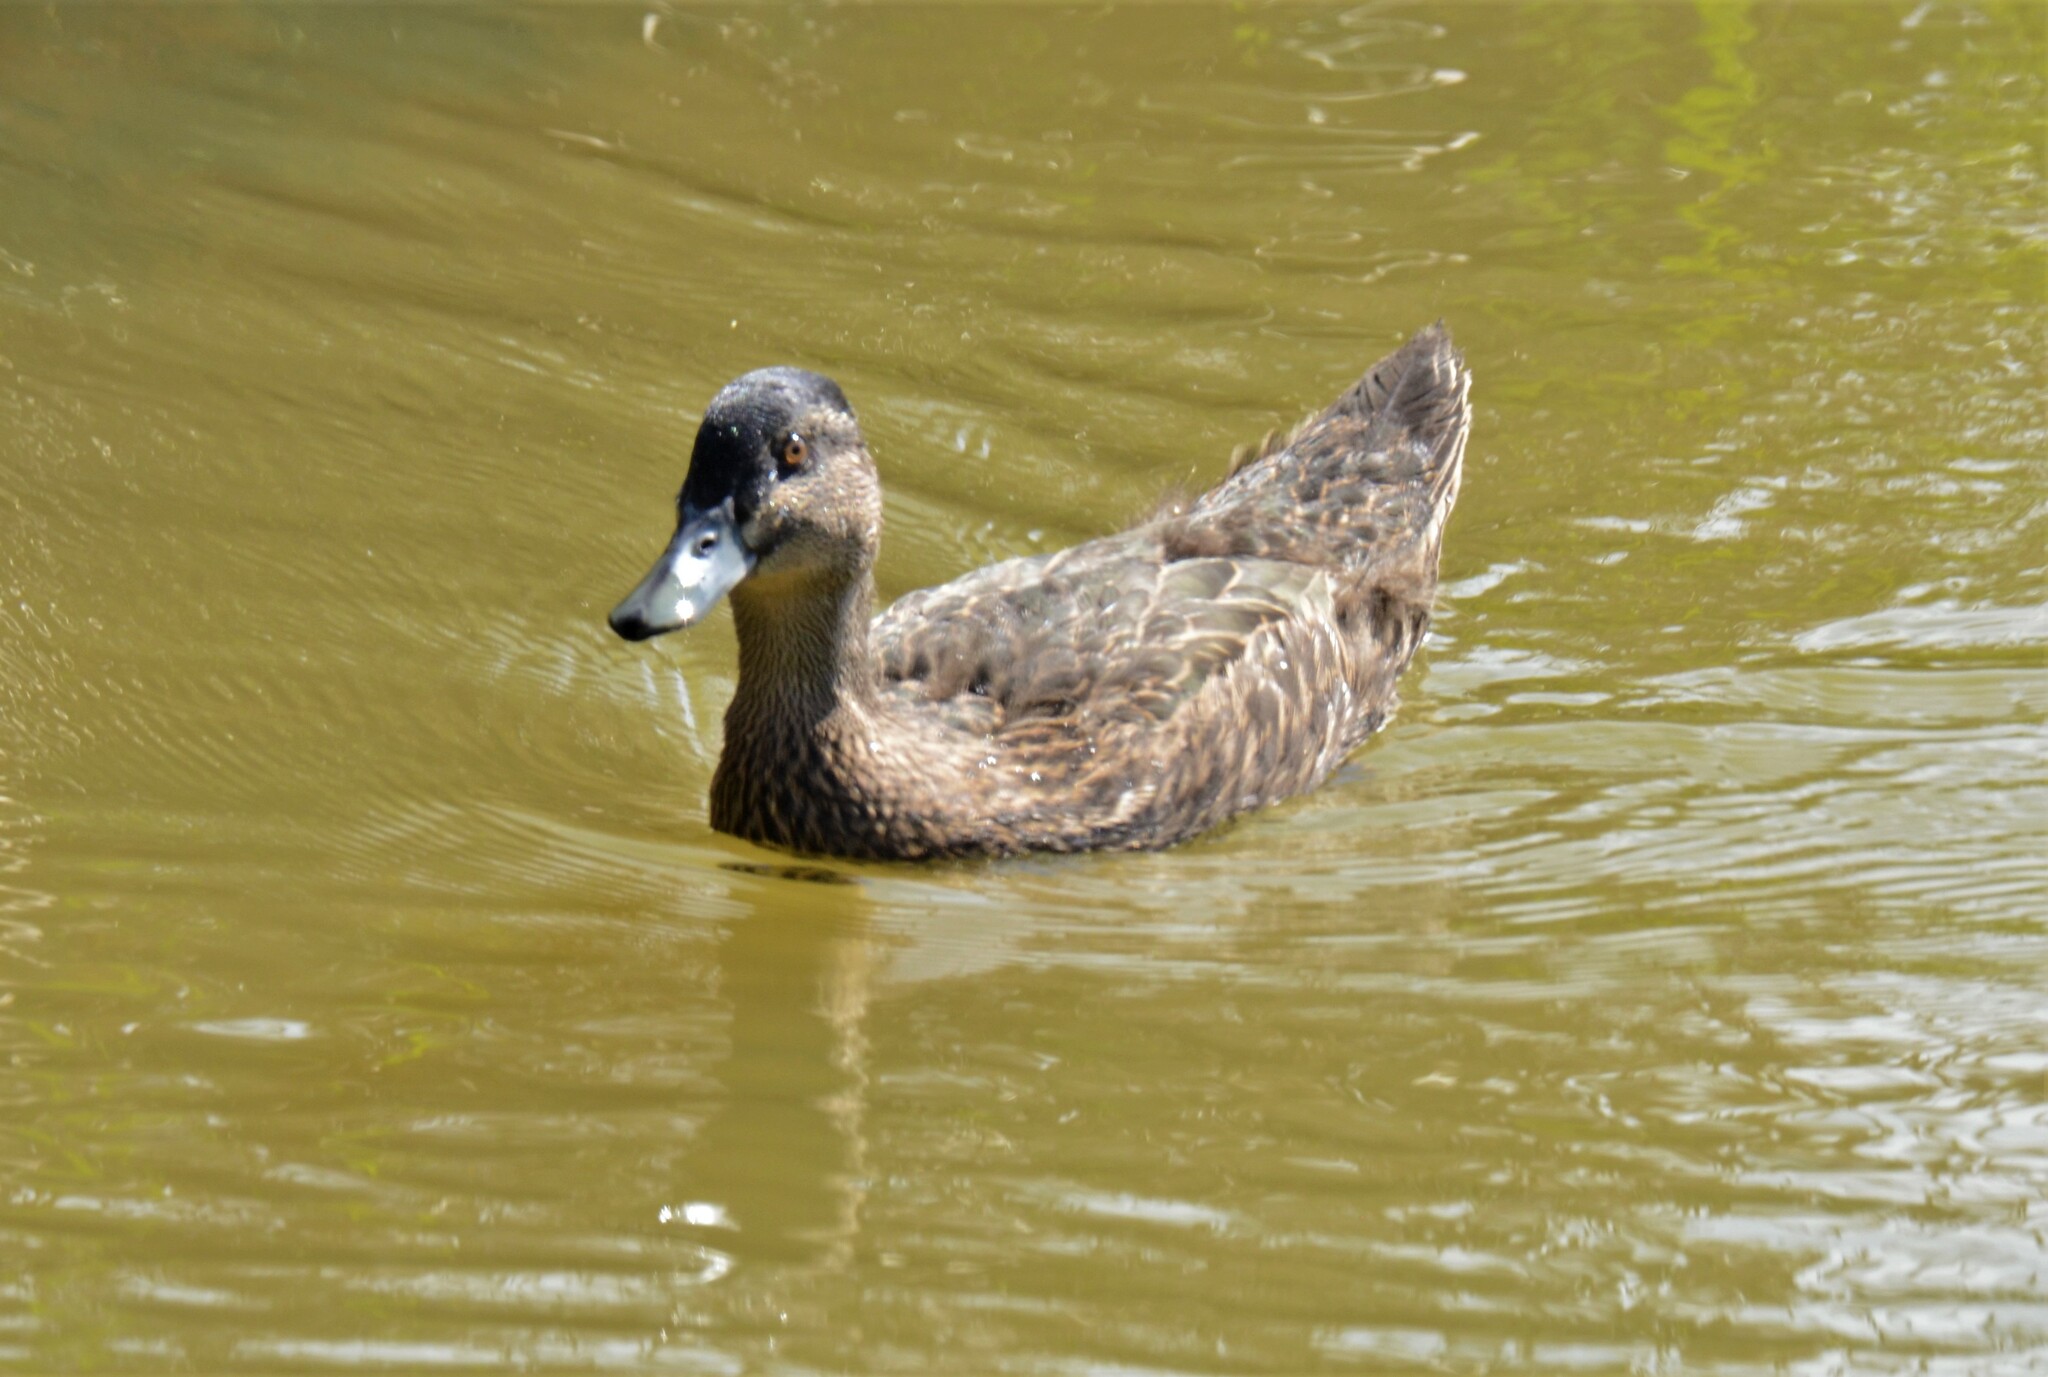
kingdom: Animalia
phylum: Chordata
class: Aves
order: Anseriformes
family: Anatidae
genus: Anas
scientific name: Anas
